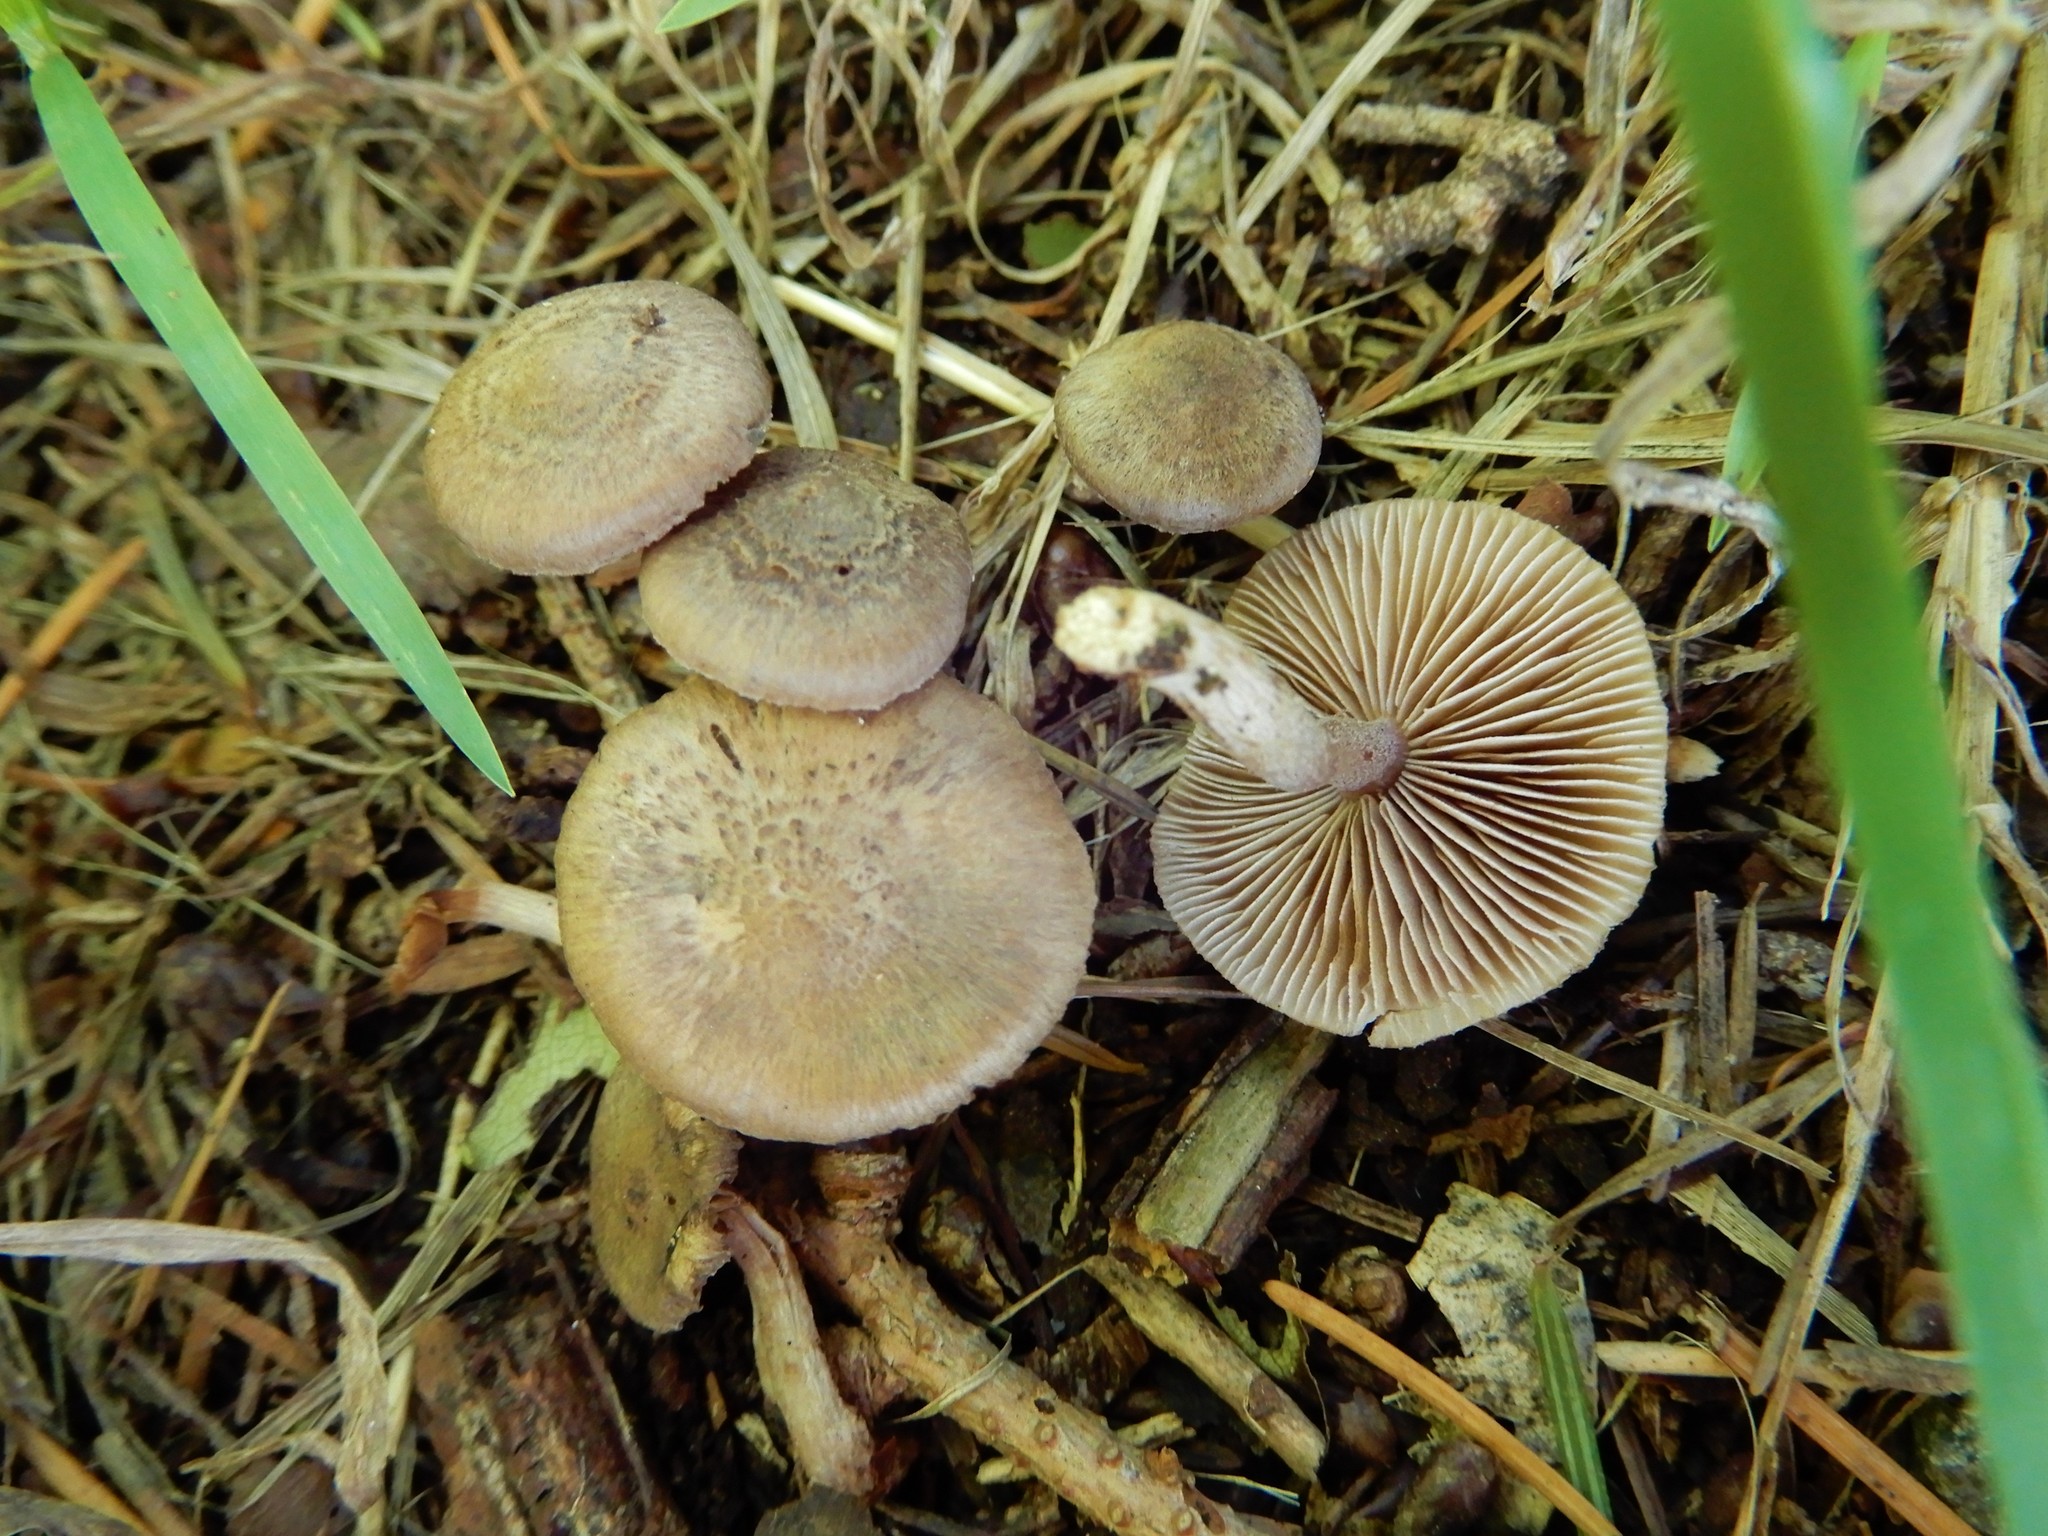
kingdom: Fungi
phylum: Basidiomycota
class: Agaricomycetes
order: Agaricales
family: Inocybaceae
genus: Inocybe
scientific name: Inocybe pseudorubens
